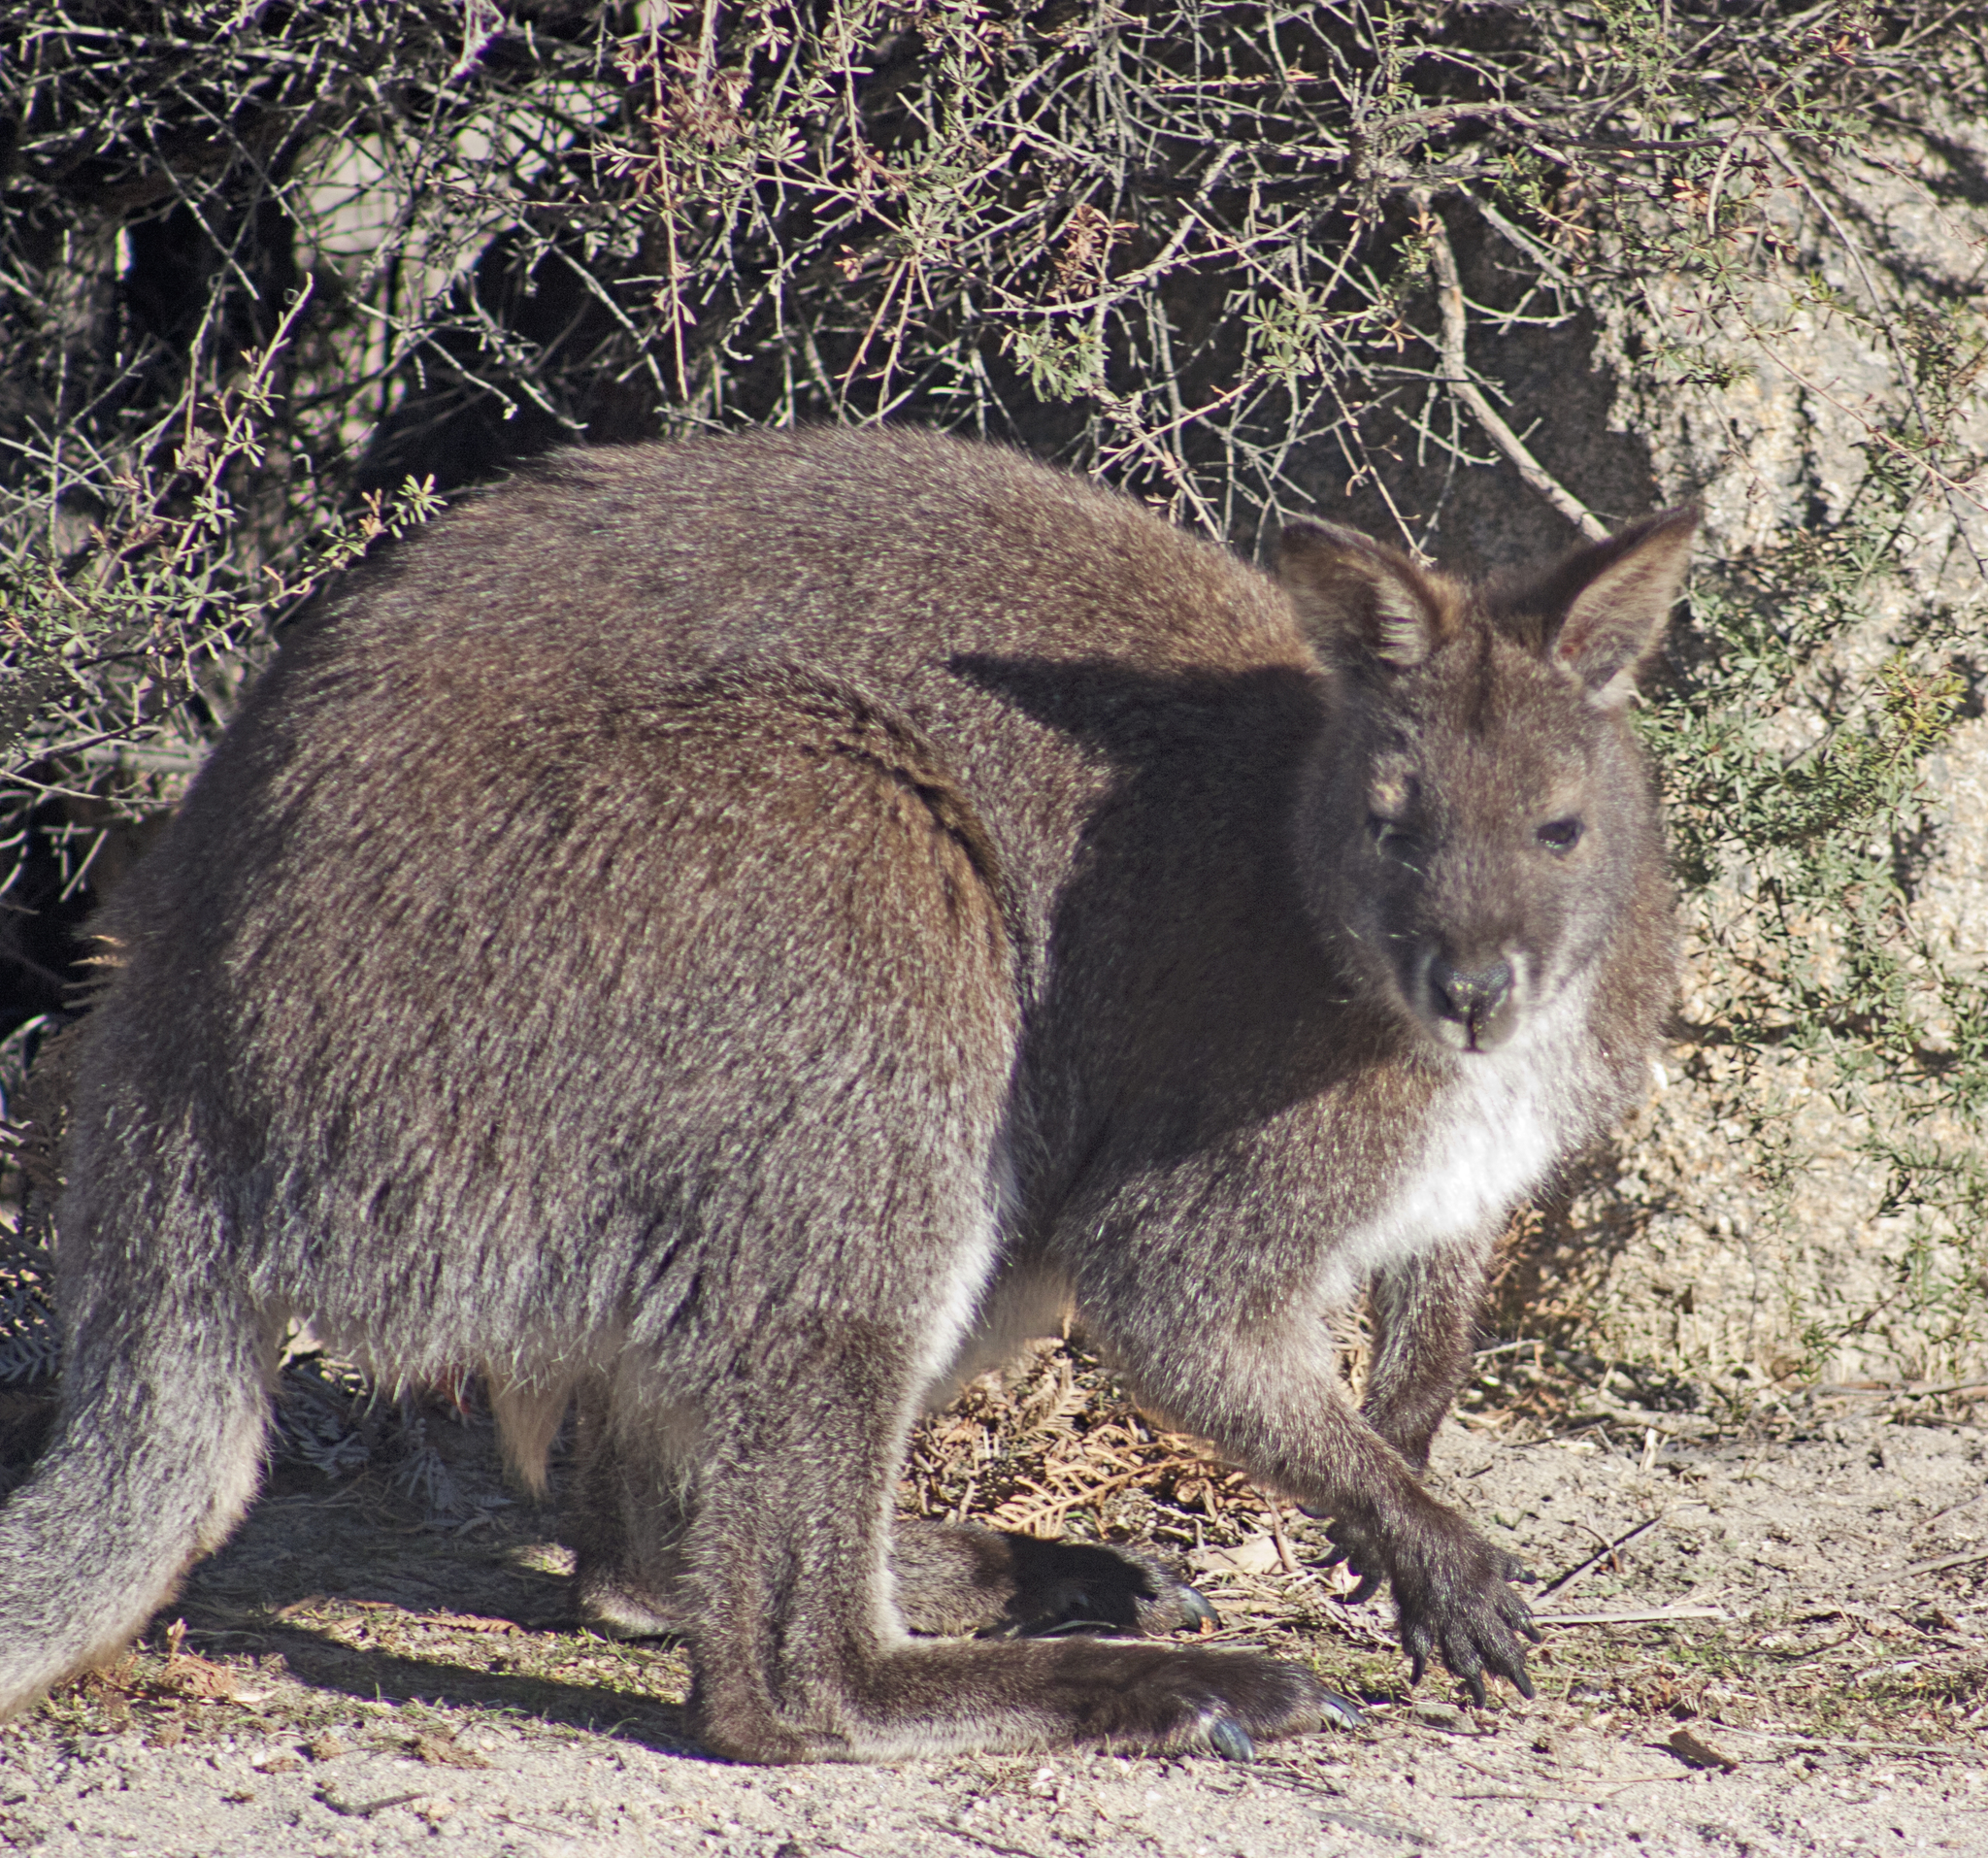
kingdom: Animalia
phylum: Chordata
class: Mammalia
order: Diprotodontia
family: Macropodidae
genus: Notamacropus
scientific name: Notamacropus rufogriseus
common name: Red-necked wallaby
